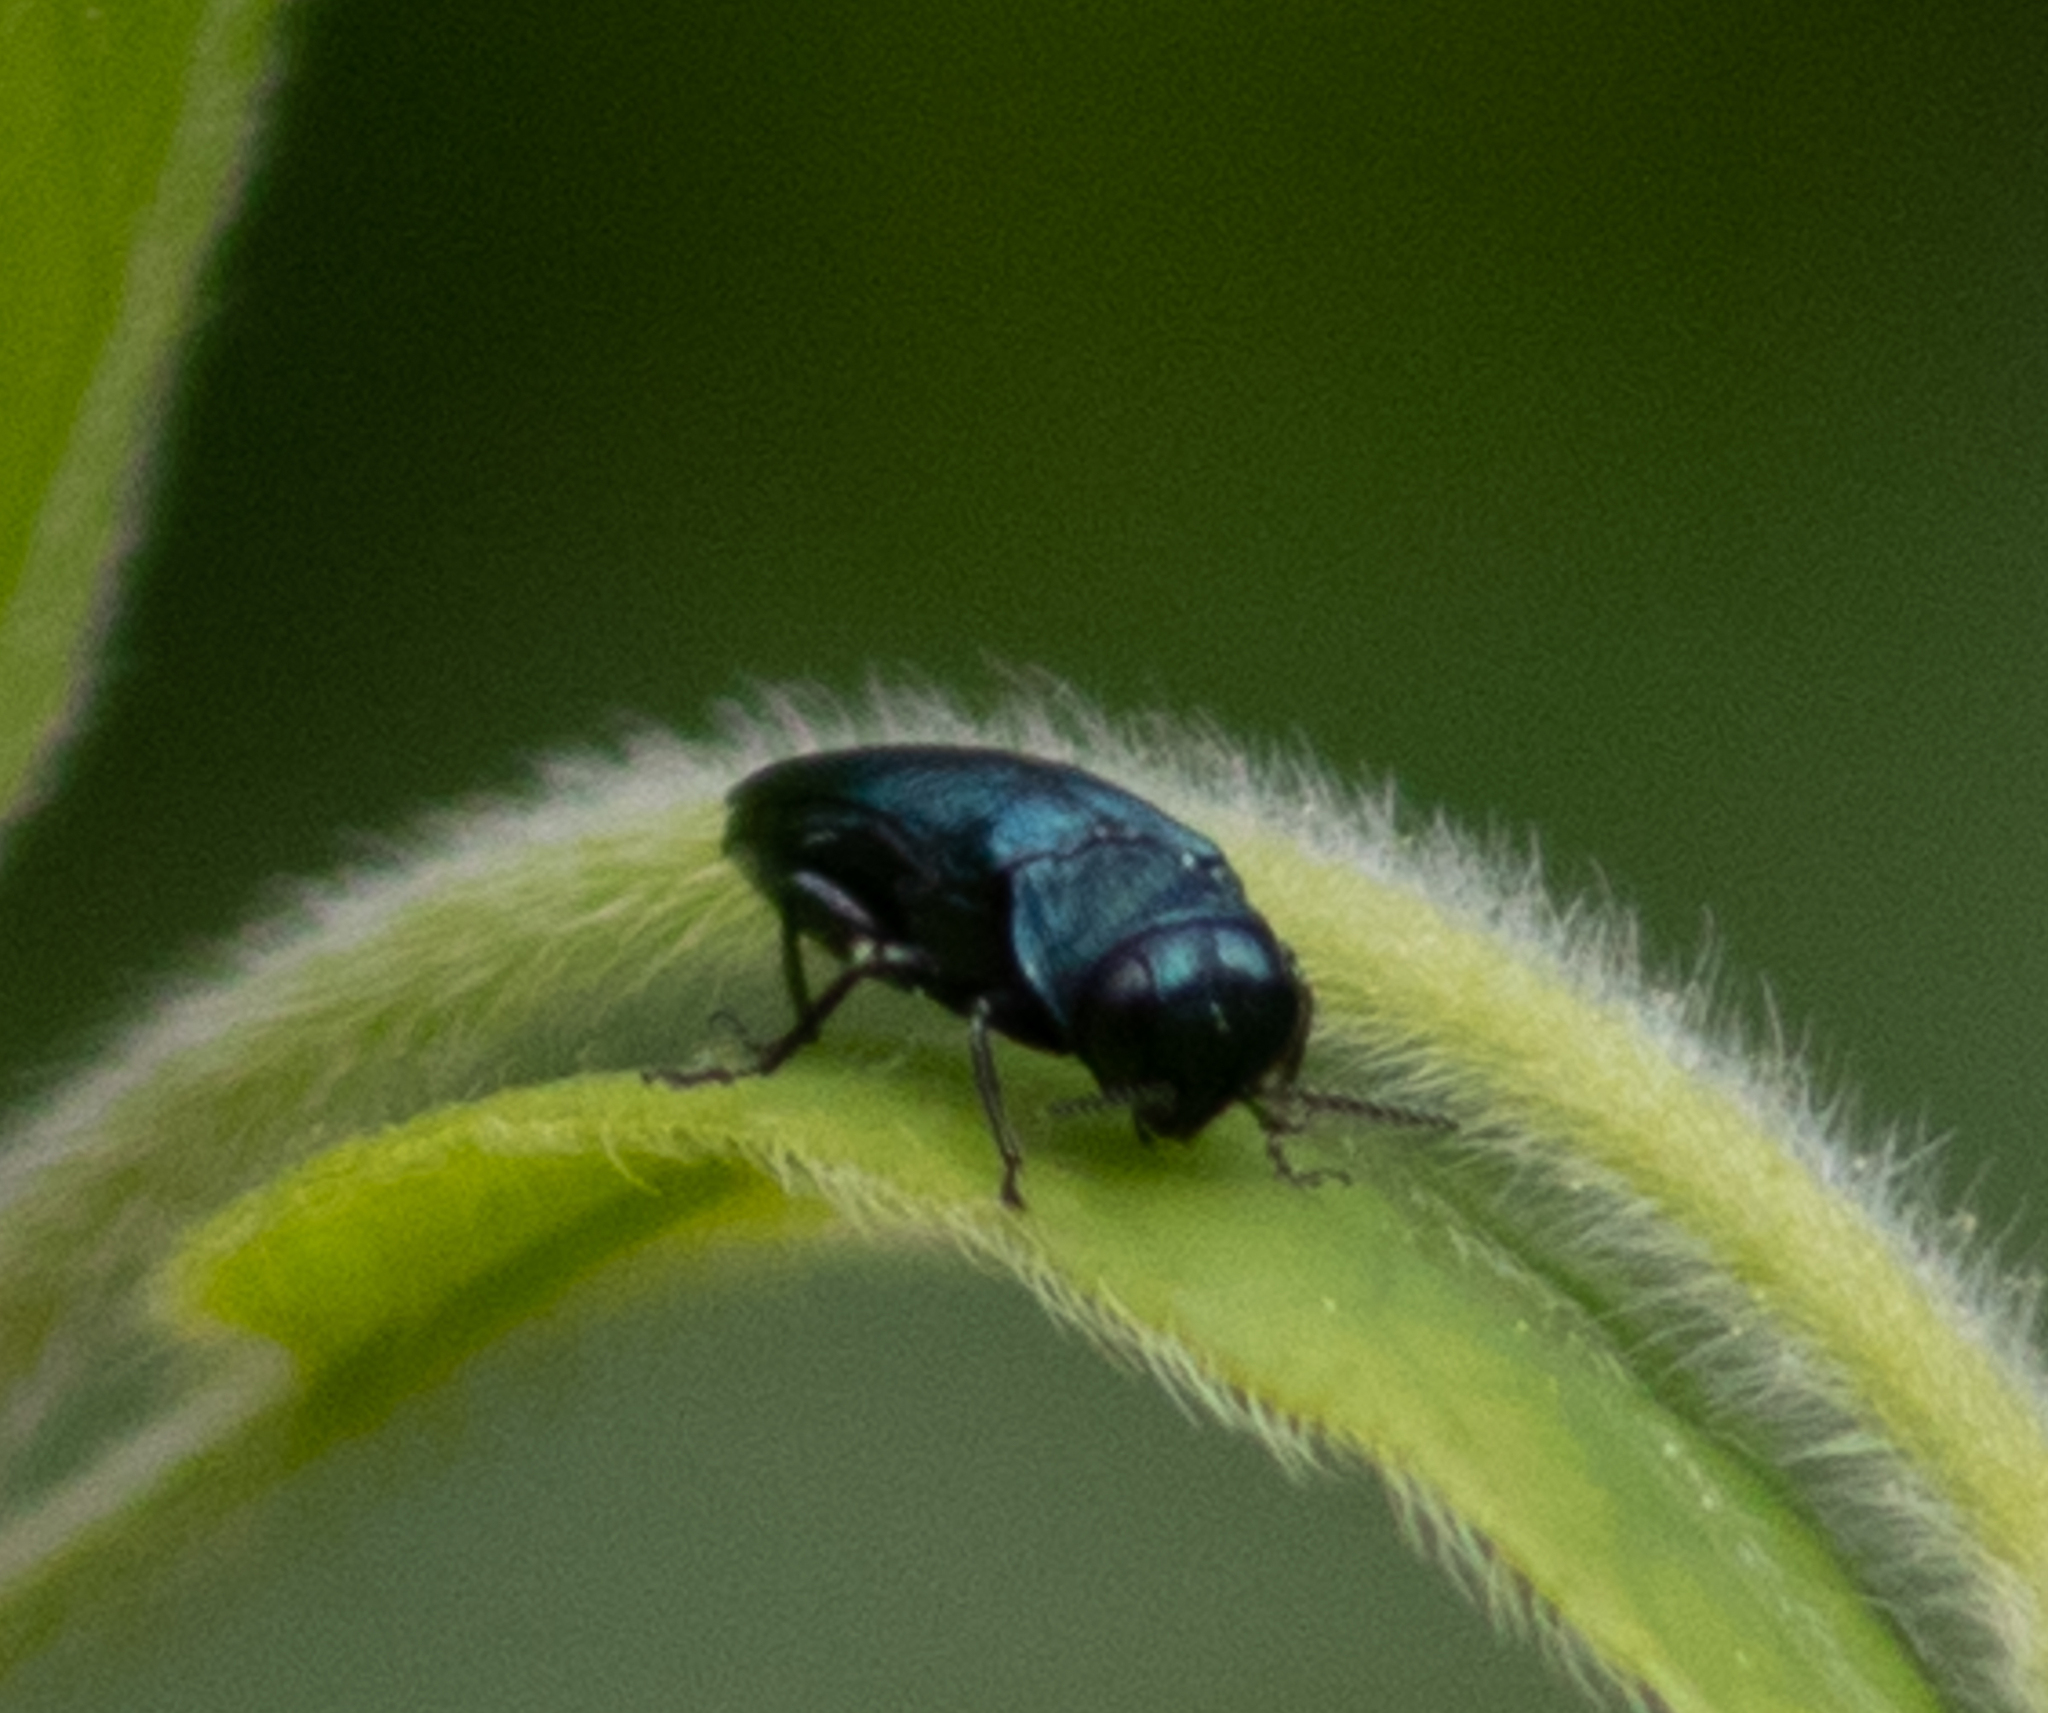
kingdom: Animalia
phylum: Arthropoda
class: Insecta
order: Coleoptera
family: Buprestidae
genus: Agrilus
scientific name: Agrilus cyanescens
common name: Bluish borer beetle
